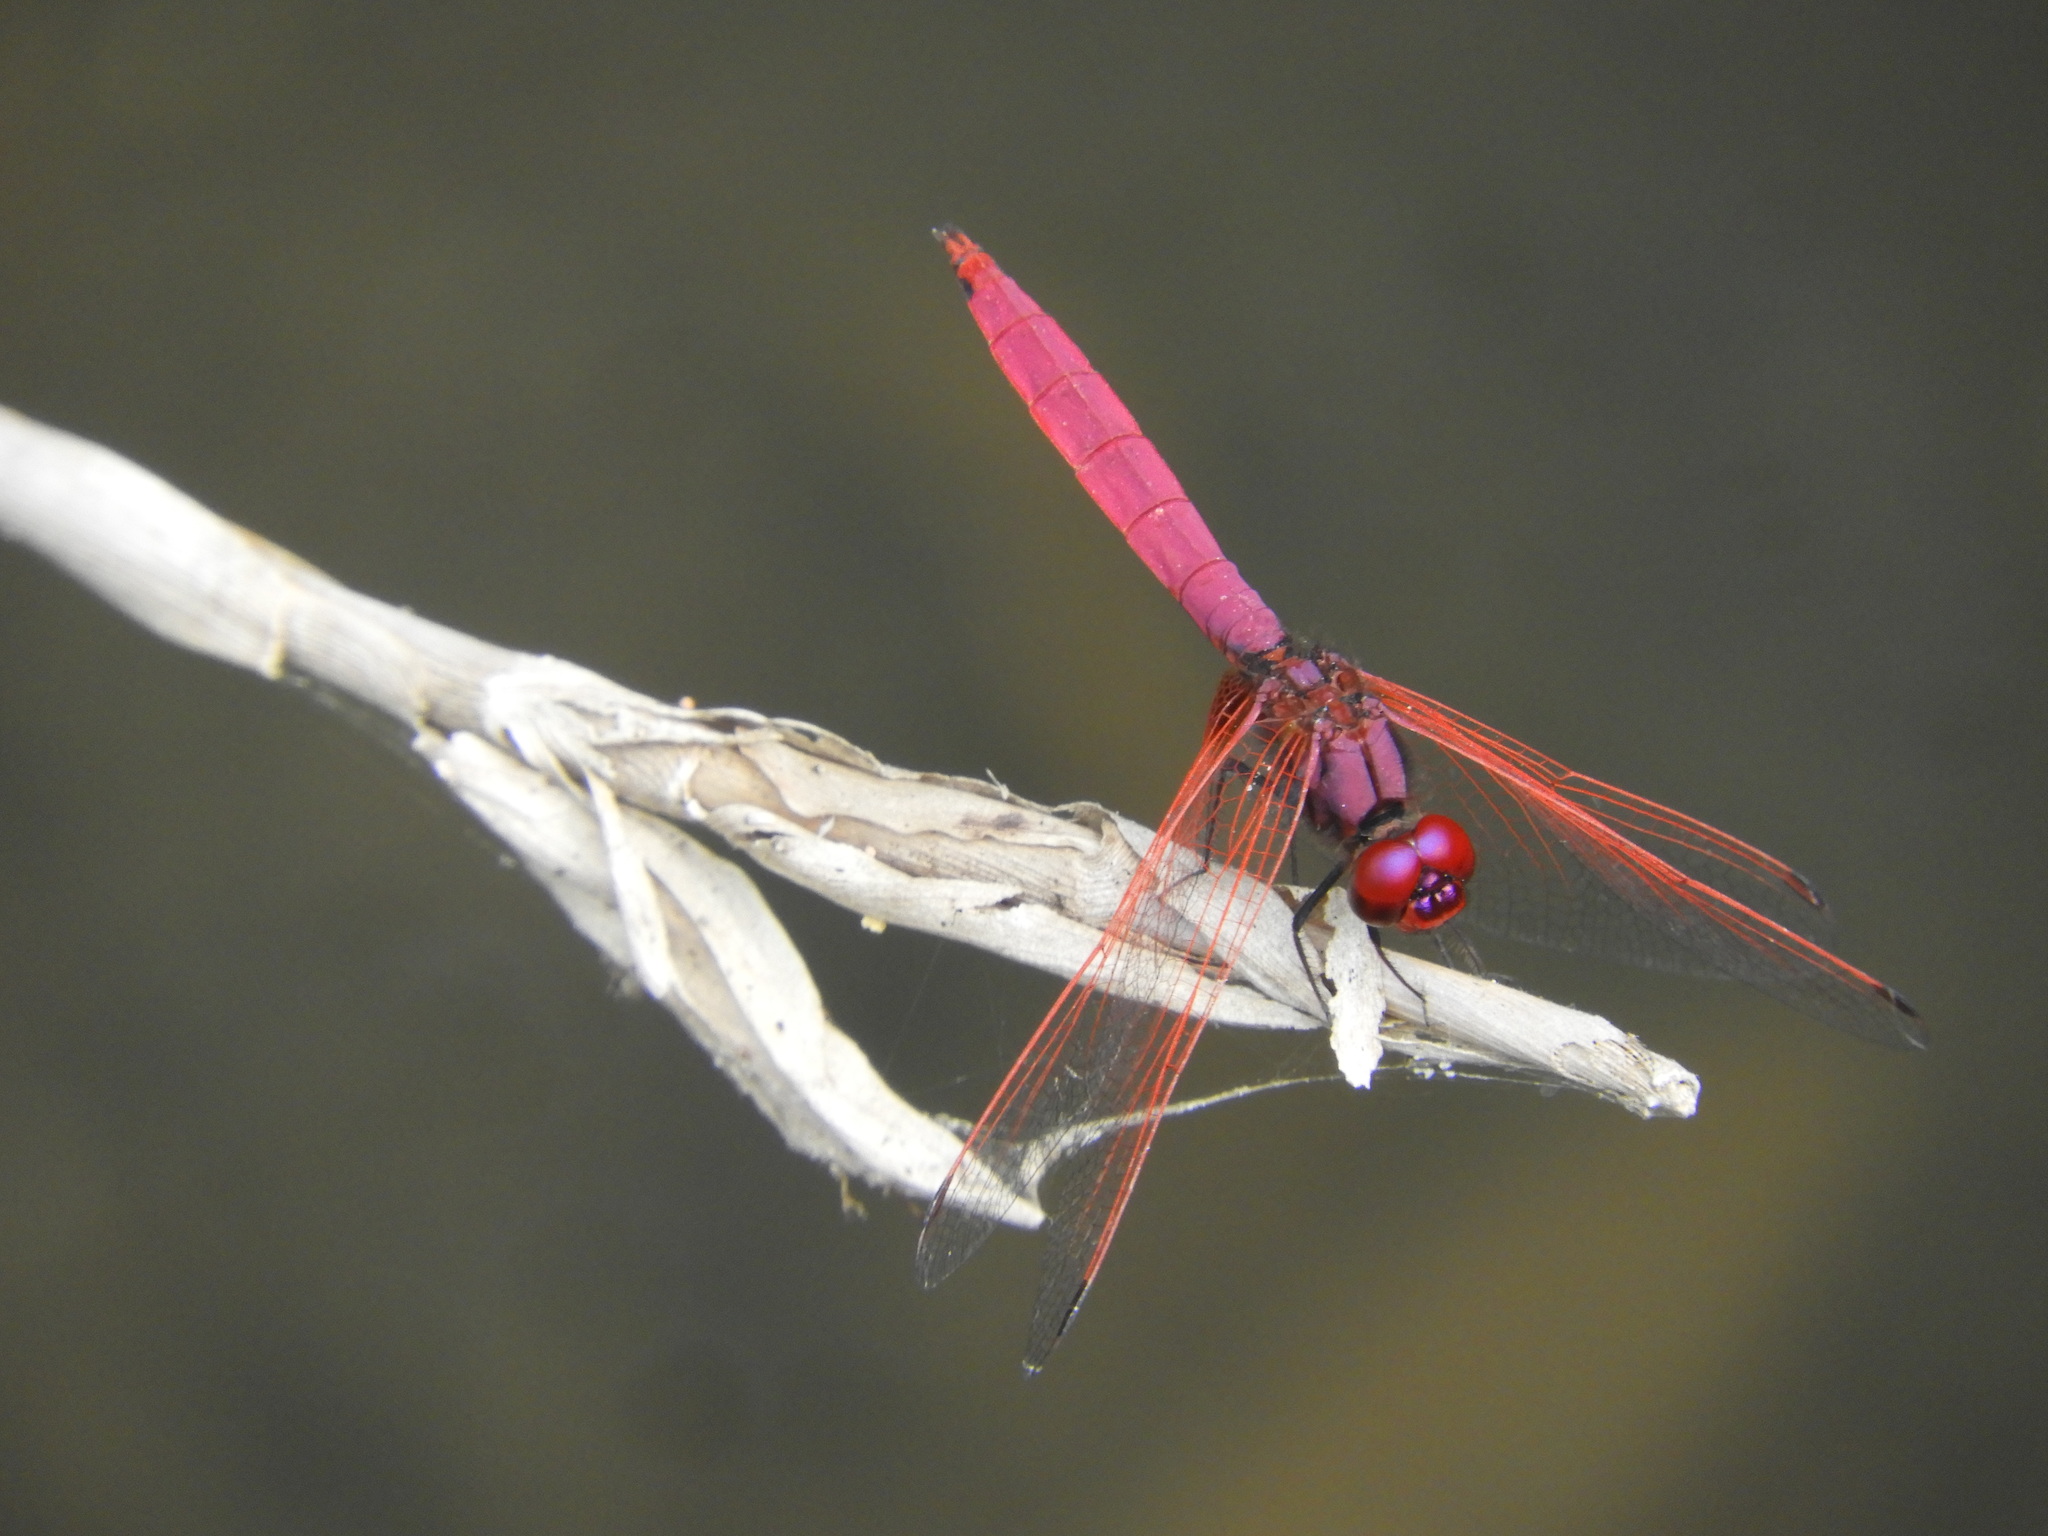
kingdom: Animalia
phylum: Arthropoda
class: Insecta
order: Odonata
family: Libellulidae
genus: Trithemis
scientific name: Trithemis aurora
